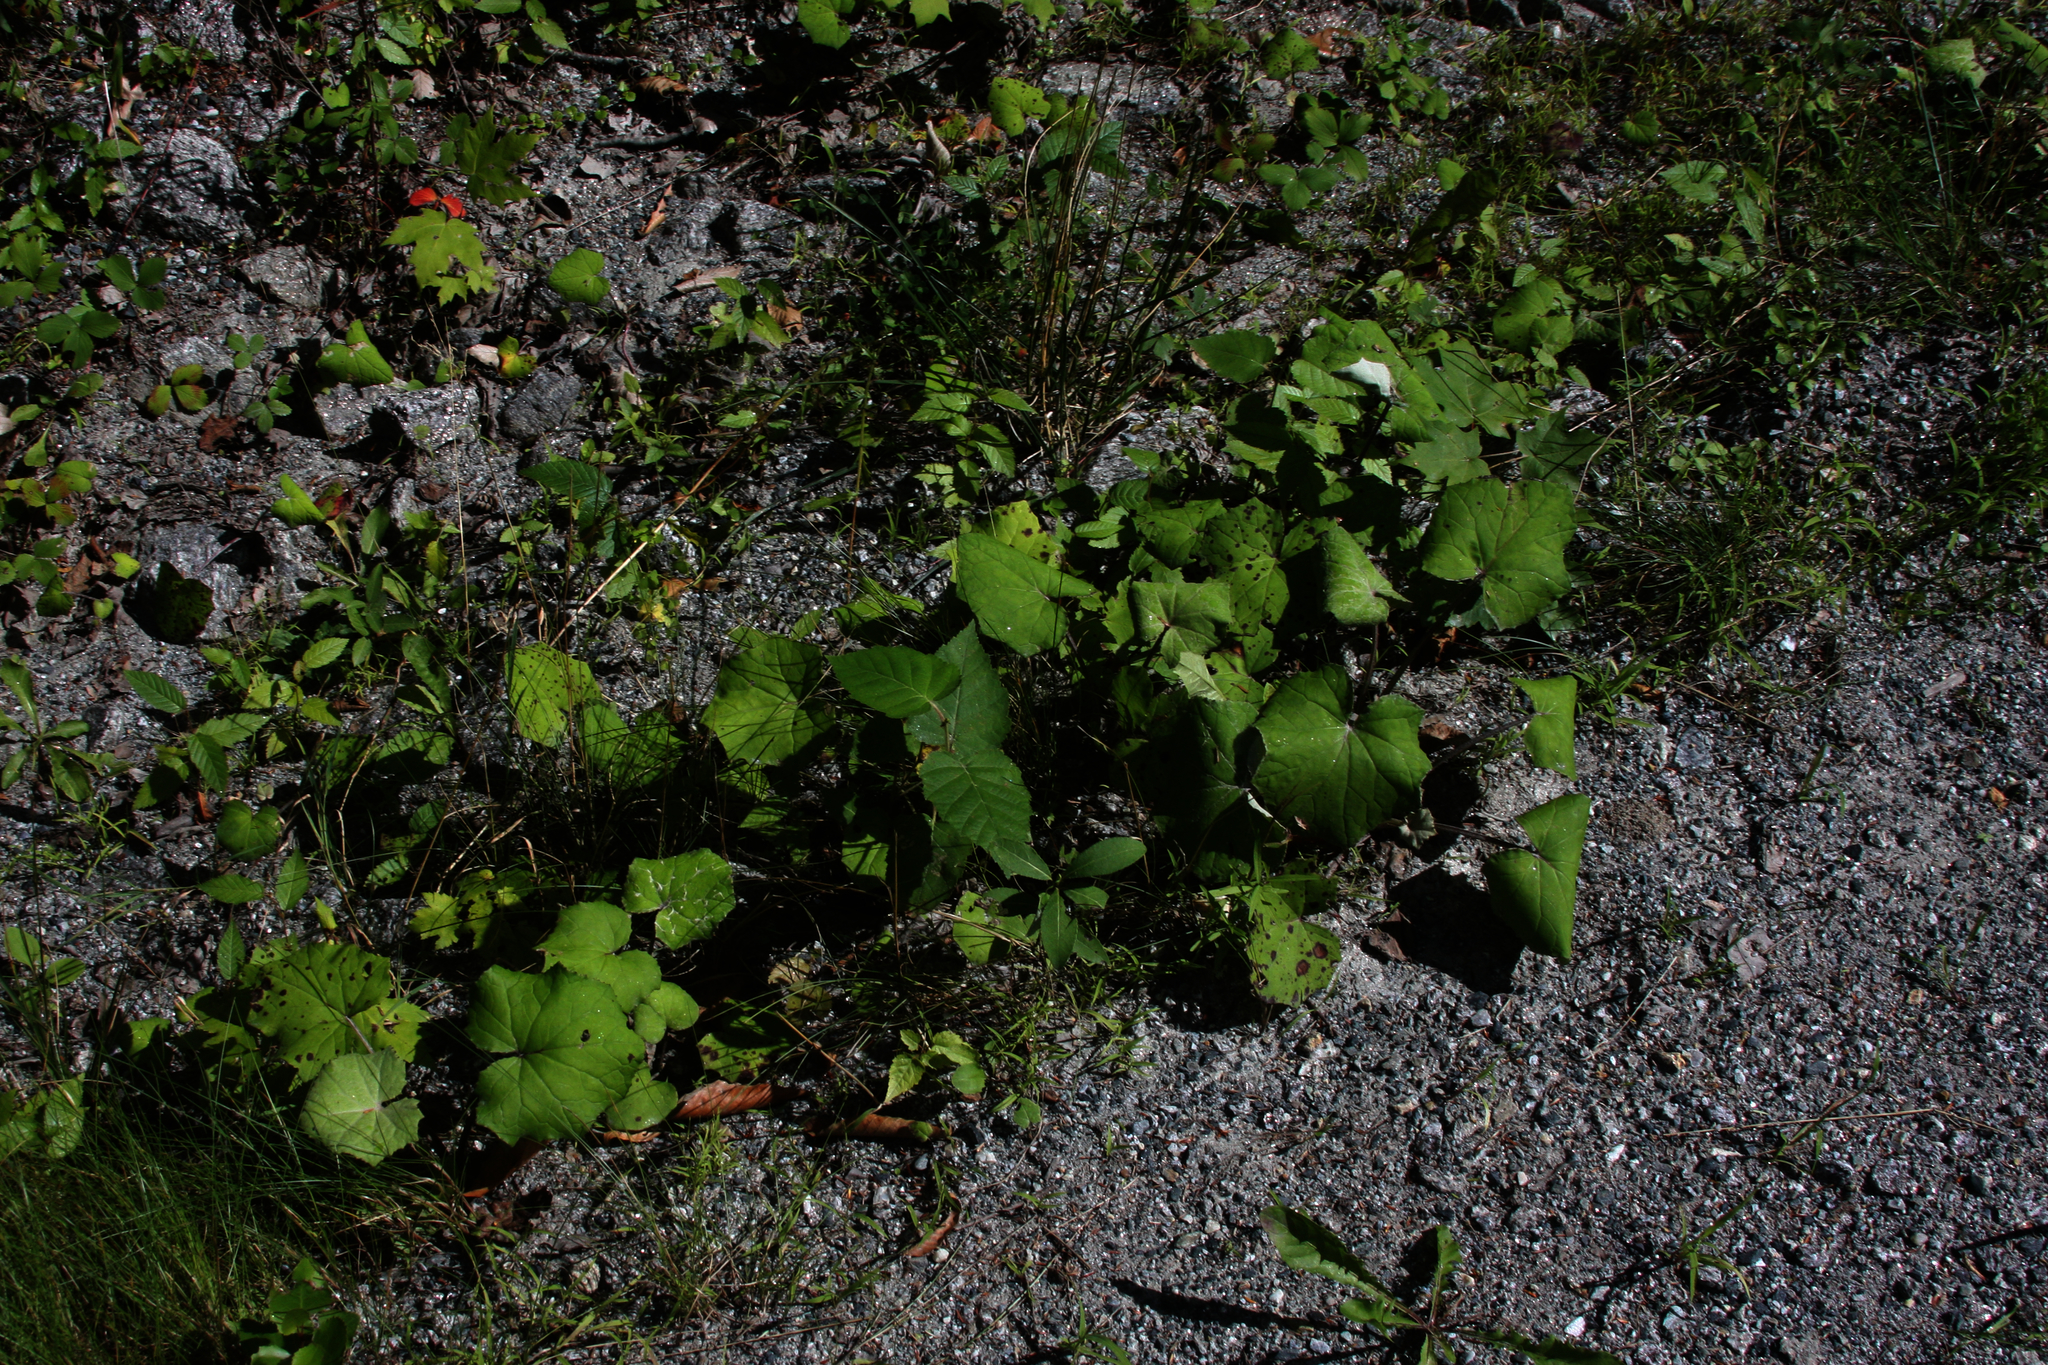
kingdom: Plantae
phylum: Tracheophyta
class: Magnoliopsida
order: Asterales
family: Asteraceae
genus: Tussilago
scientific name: Tussilago farfara
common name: Coltsfoot
